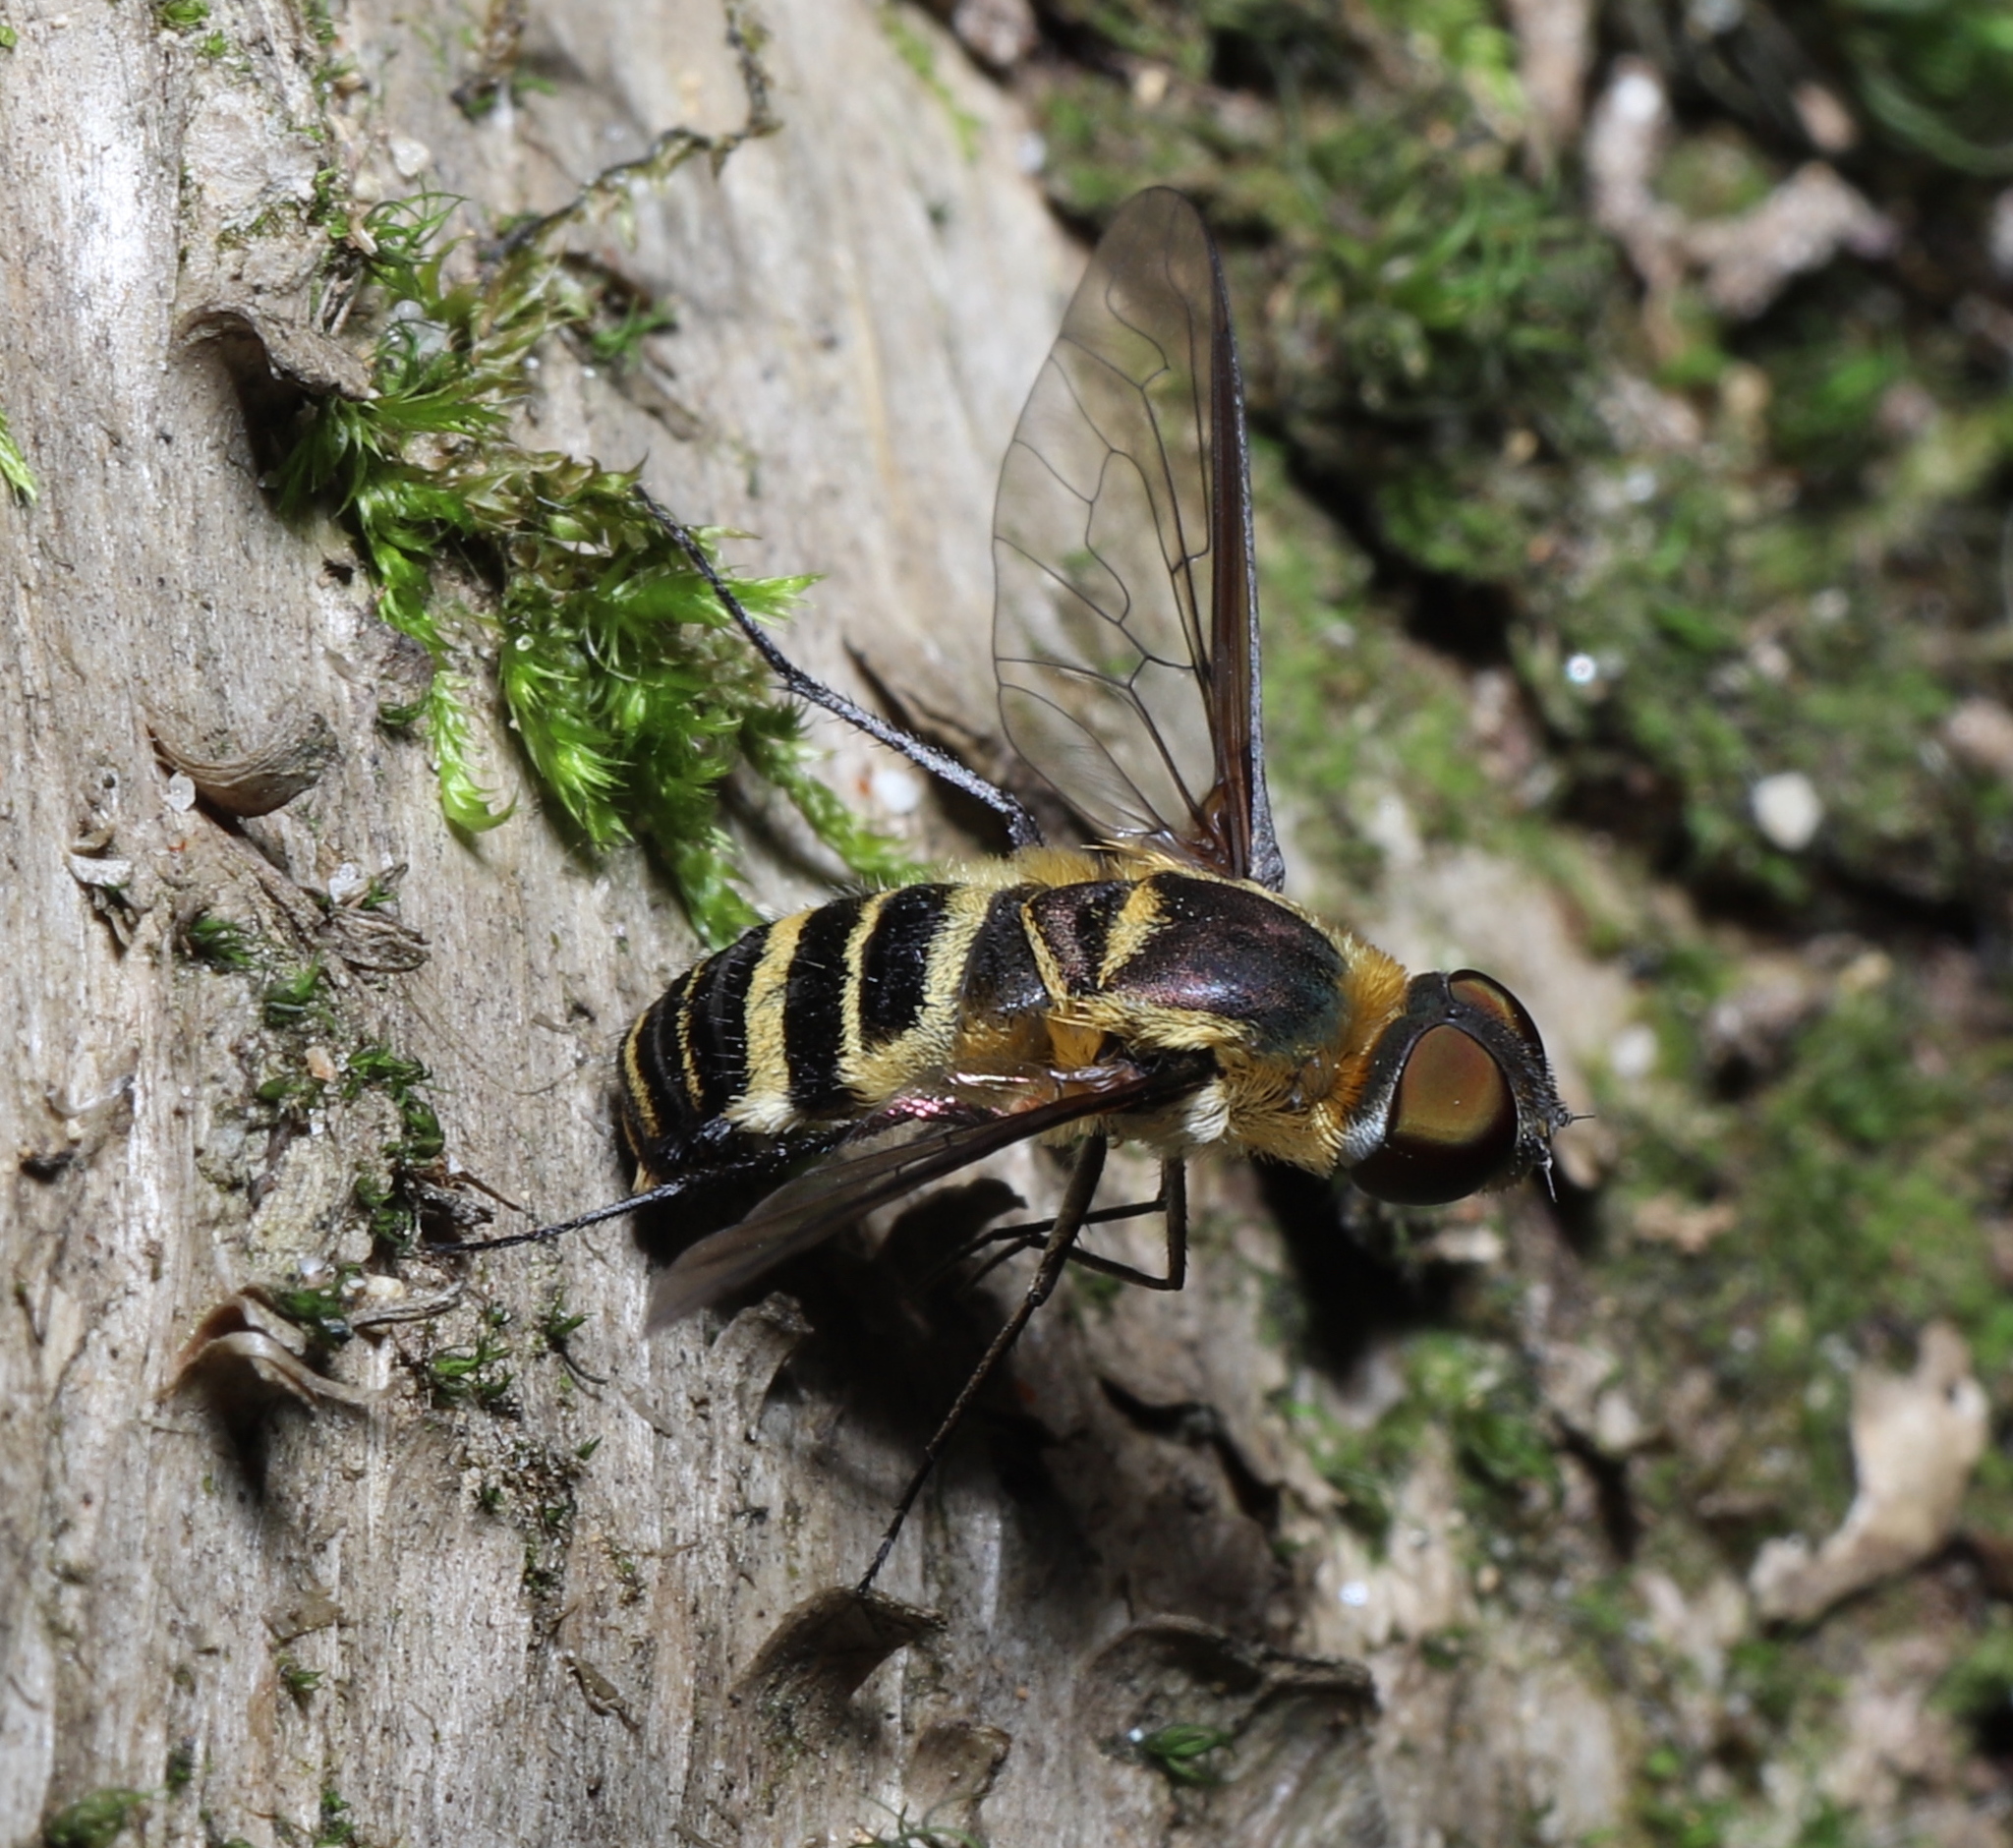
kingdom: Animalia
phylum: Arthropoda
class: Insecta
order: Diptera
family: Bombyliidae
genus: Villa
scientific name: Villa lateralis
